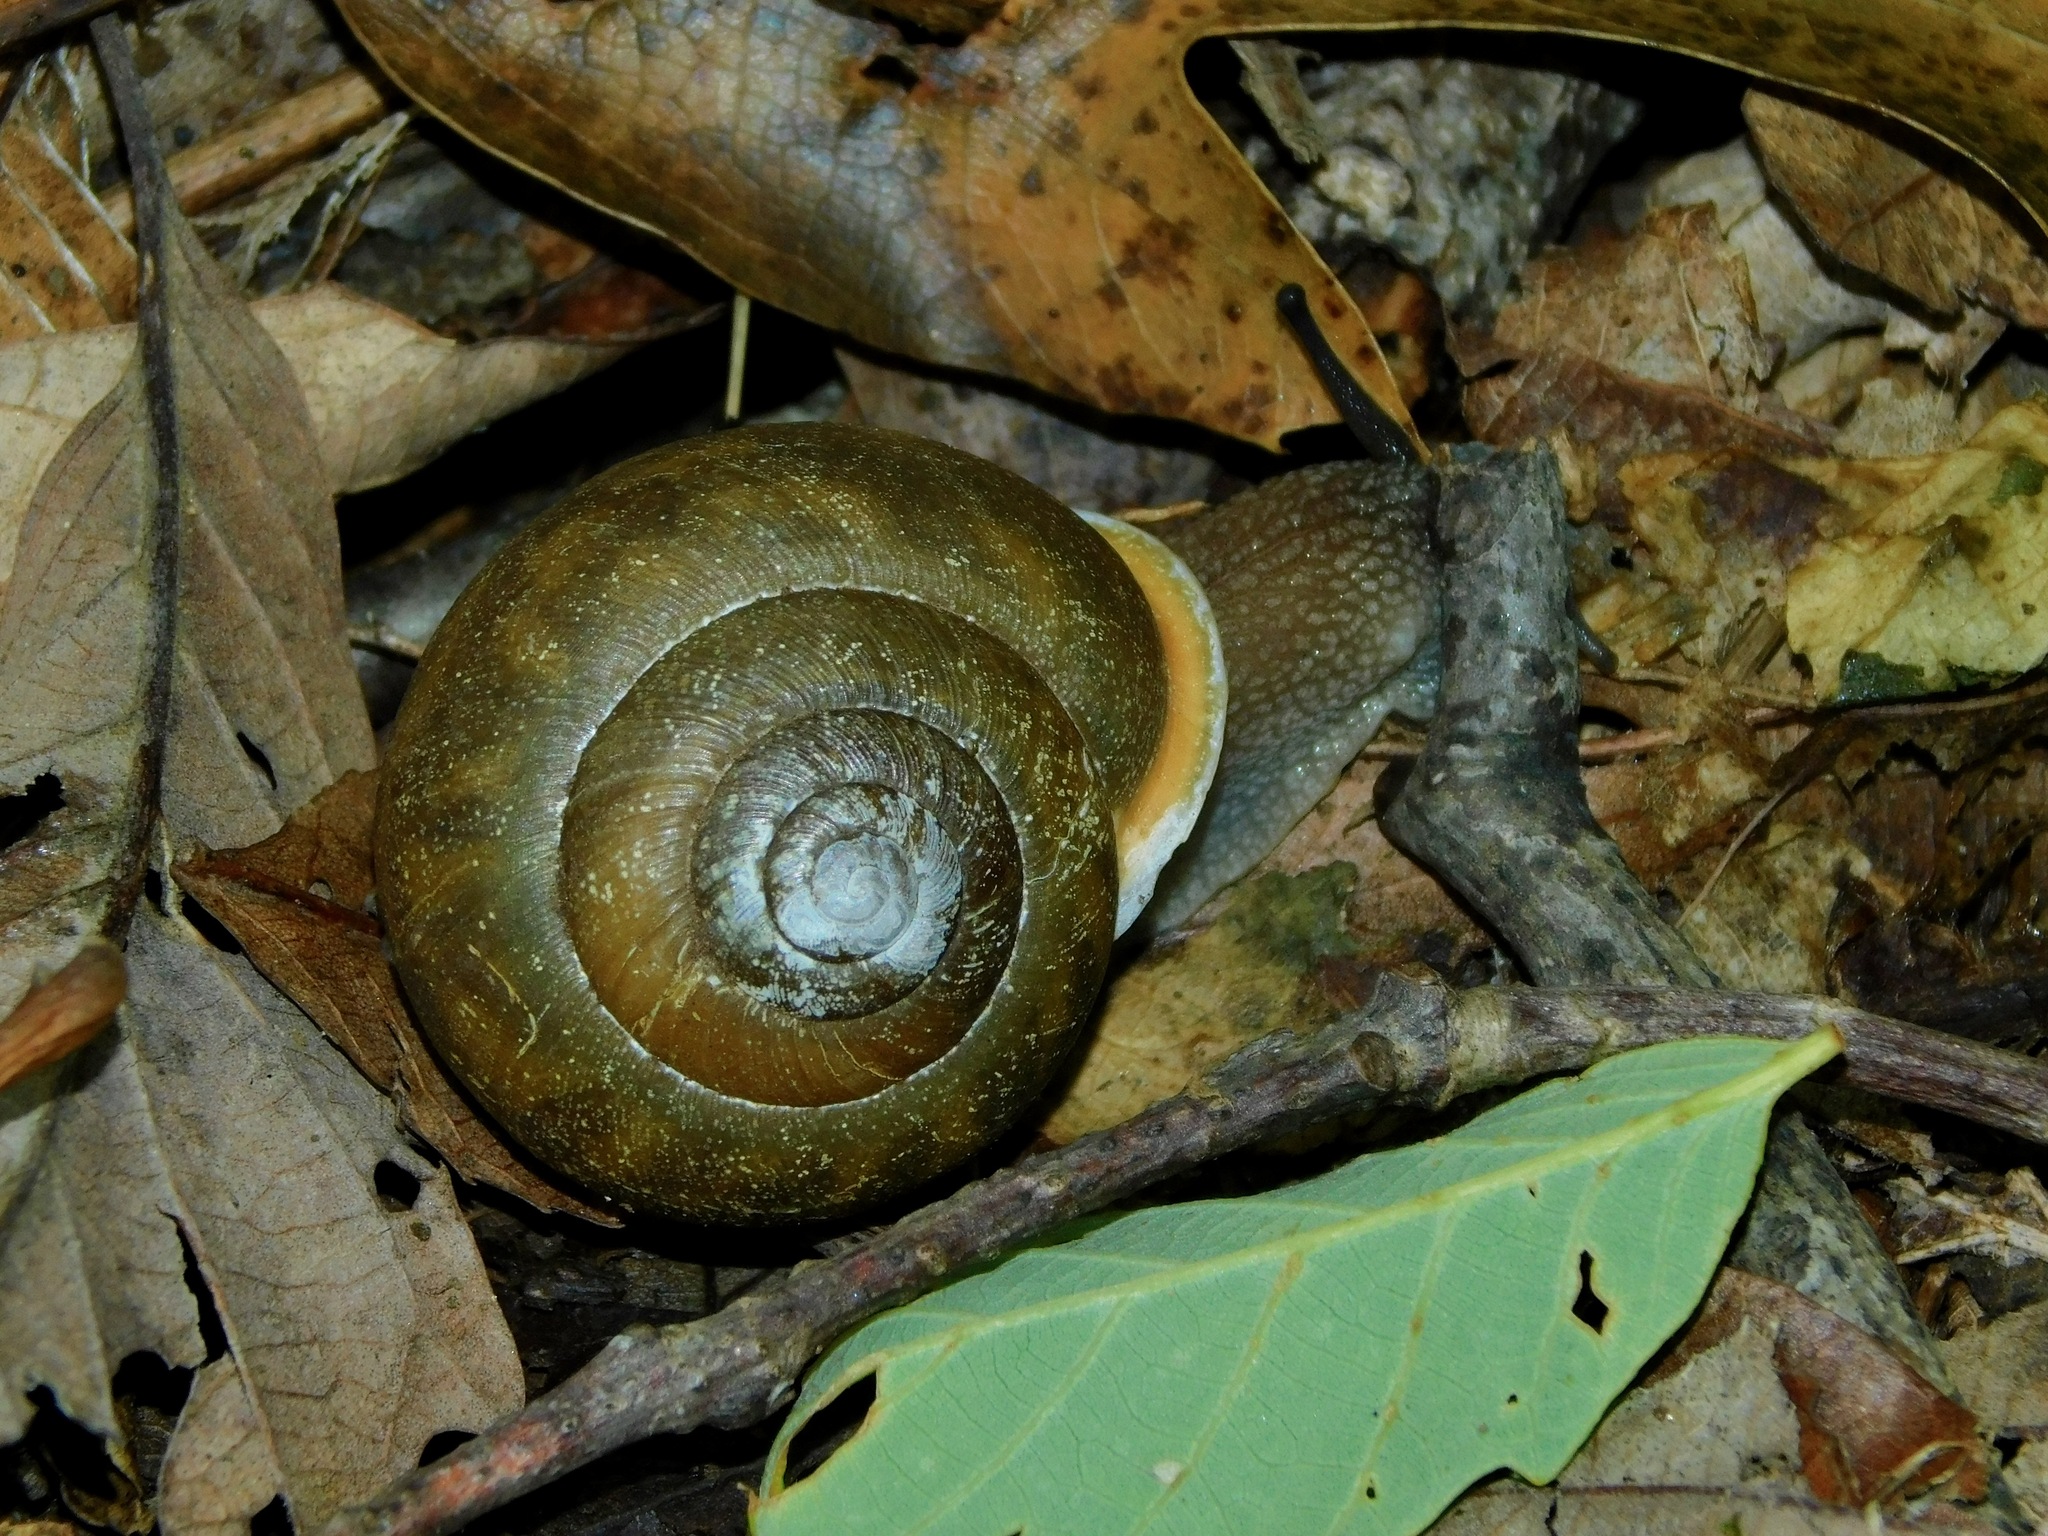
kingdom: Animalia
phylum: Mollusca
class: Gastropoda
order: Stylommatophora
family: Polygyridae
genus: Mesodon
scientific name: Mesodon normalis
